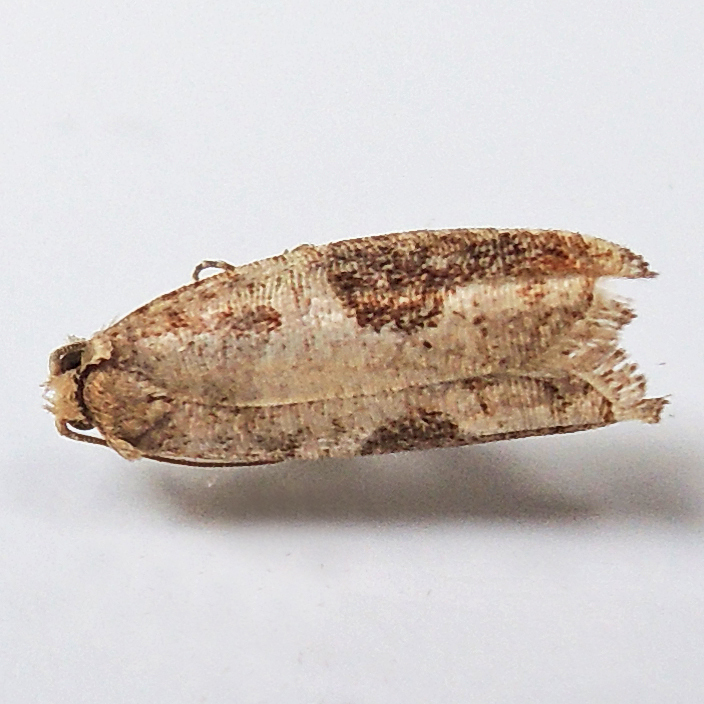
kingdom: Animalia
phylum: Arthropoda
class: Insecta
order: Lepidoptera
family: Tortricidae
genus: Pseudexentera
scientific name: Pseudexentera virginiana
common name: Virginia pseudexentera moth
